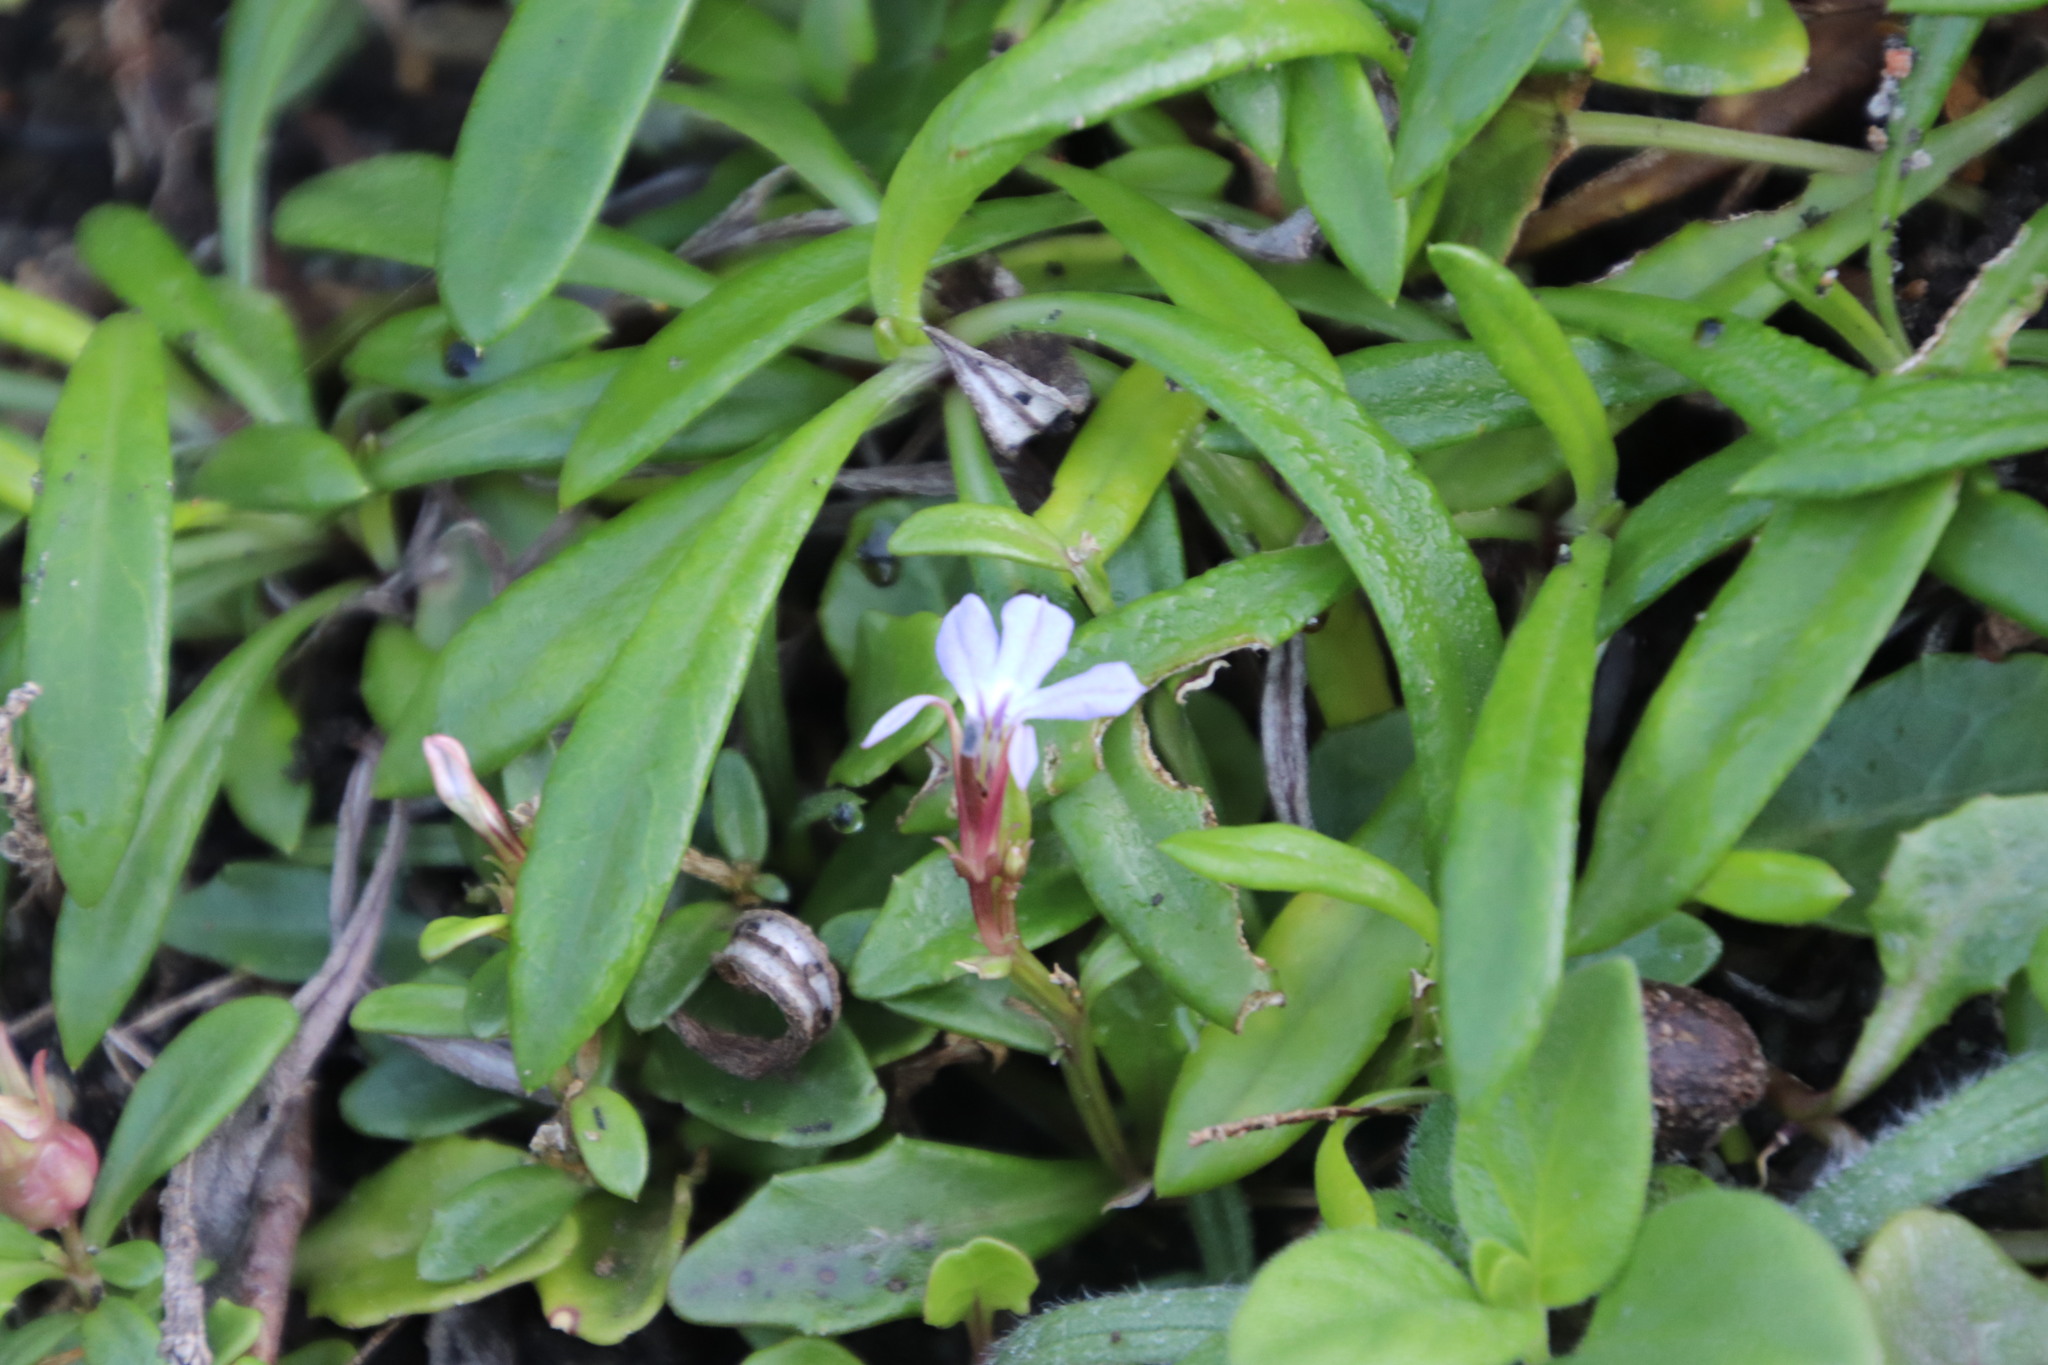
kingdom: Plantae
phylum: Tracheophyta
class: Magnoliopsida
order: Asterales
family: Campanulaceae
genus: Lobelia
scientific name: Lobelia anceps
